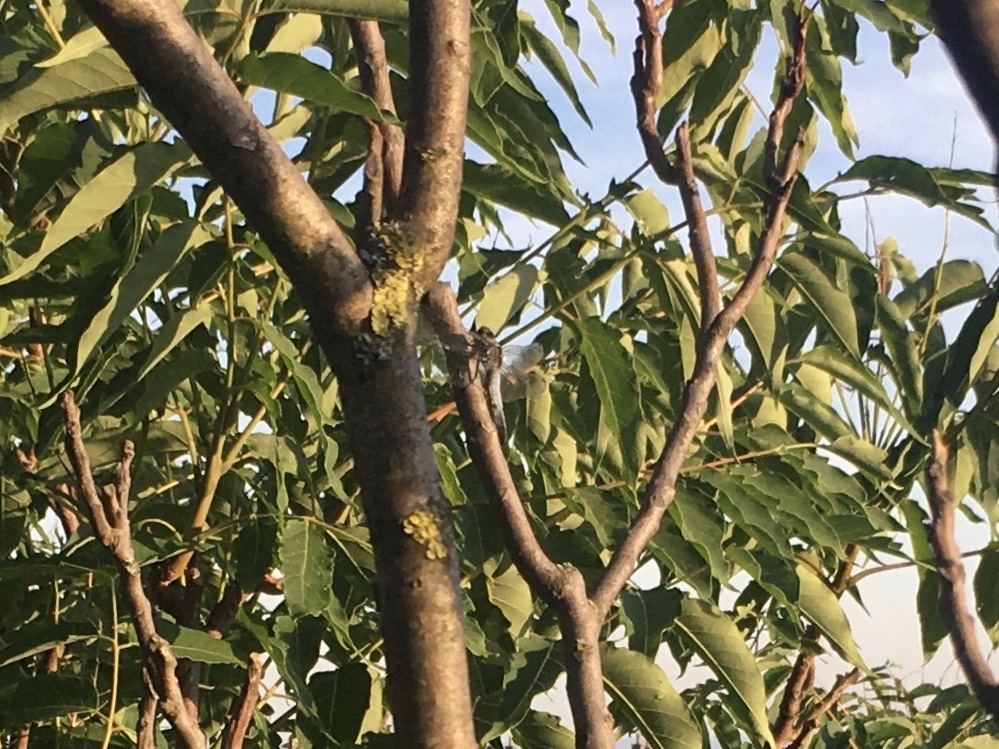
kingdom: Animalia
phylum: Arthropoda
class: Insecta
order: Odonata
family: Libellulidae
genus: Orthetrum
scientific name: Orthetrum cancellatum
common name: Black-tailed skimmer
